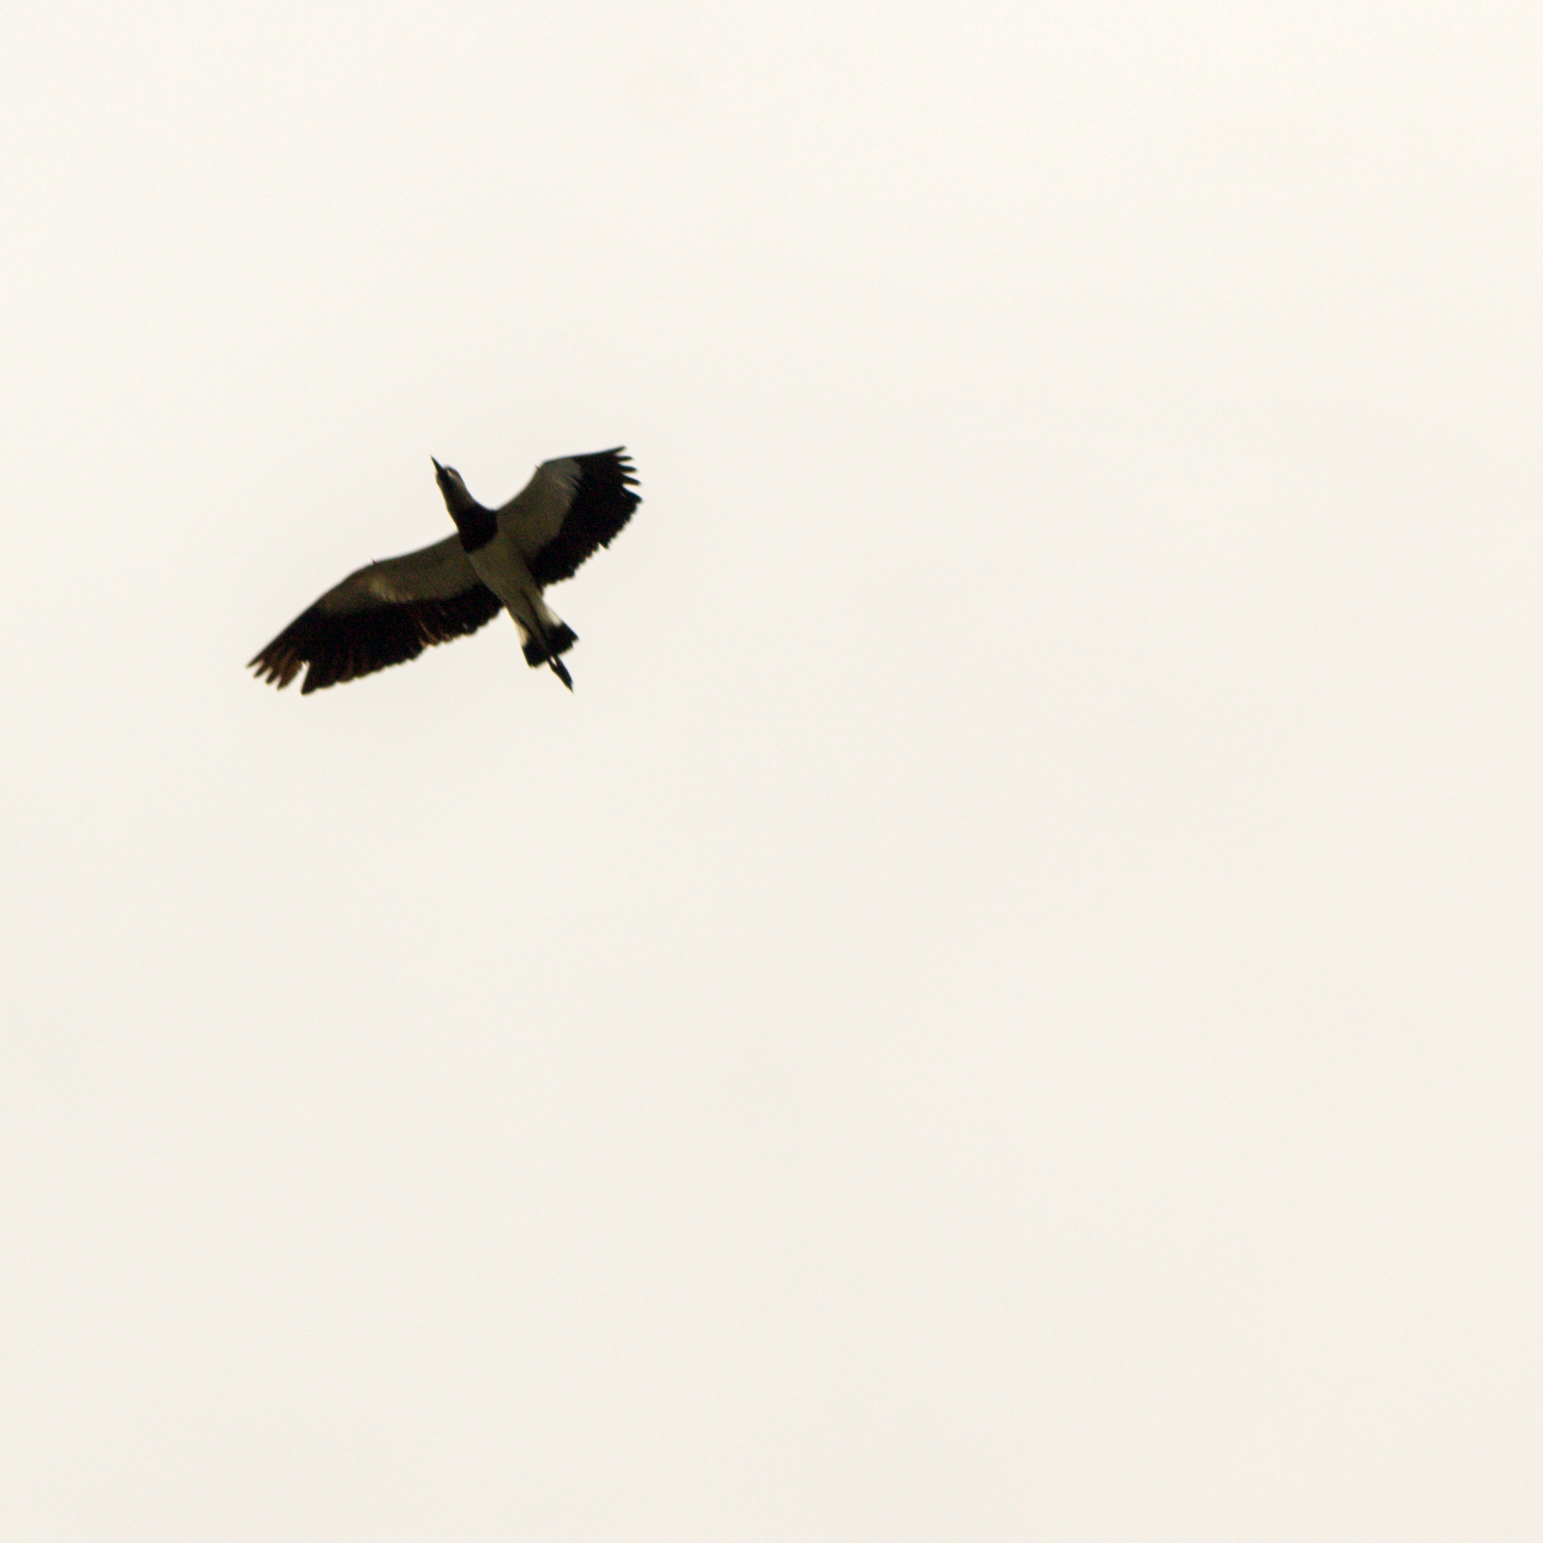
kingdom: Animalia
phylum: Chordata
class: Aves
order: Charadriiformes
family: Charadriidae
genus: Vanellus
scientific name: Vanellus chilensis
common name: Southern lapwing
